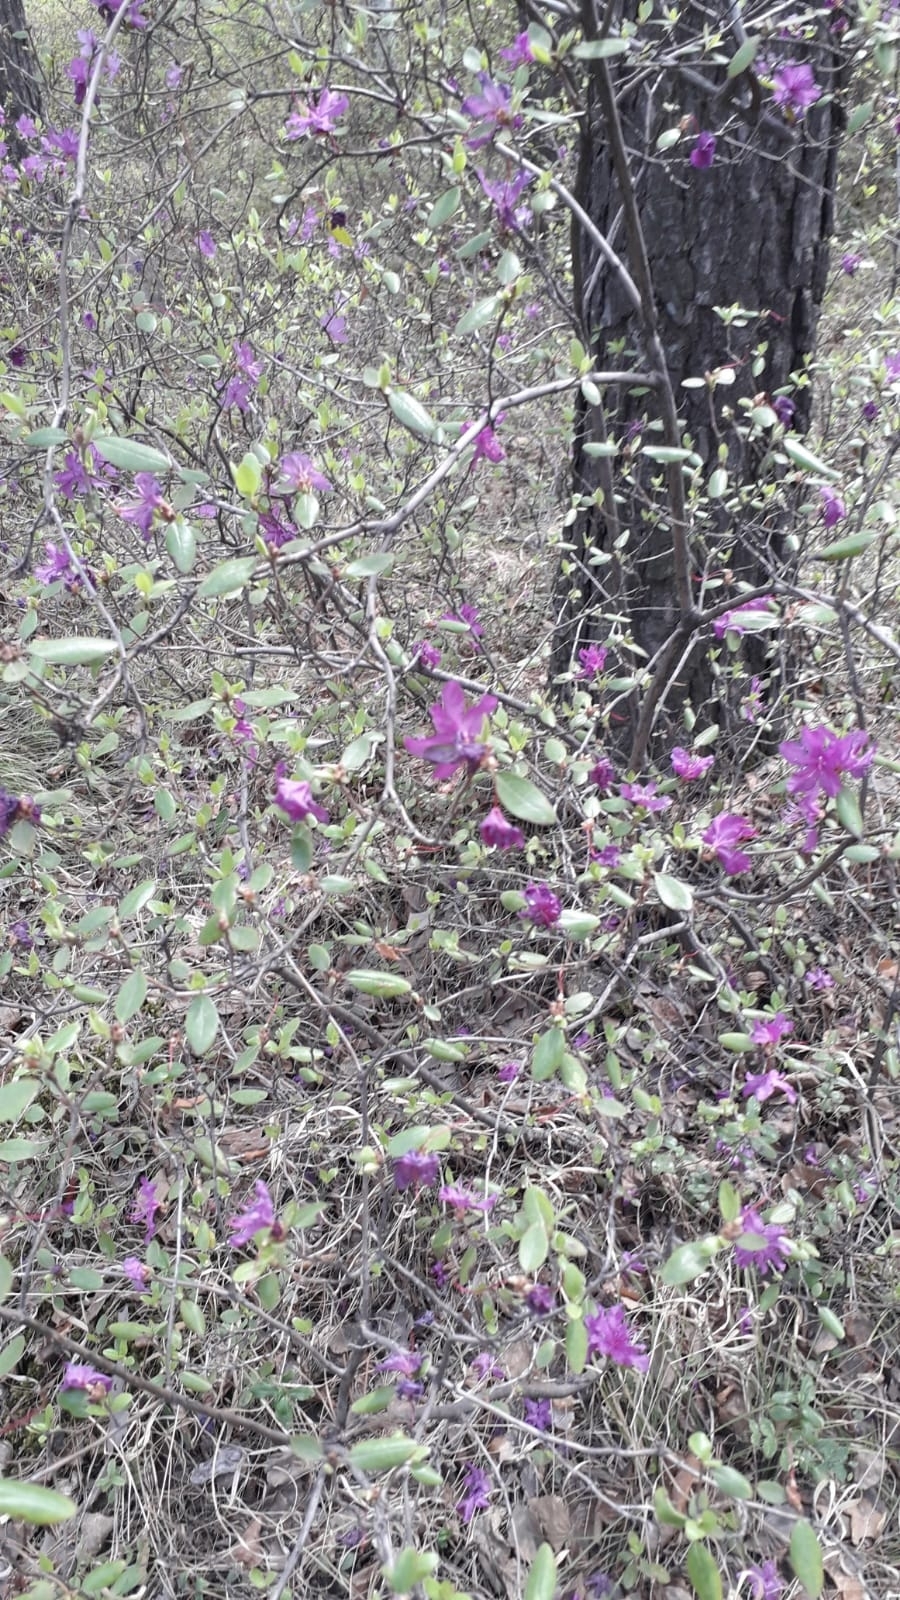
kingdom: Plantae
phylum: Tracheophyta
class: Magnoliopsida
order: Ericales
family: Ericaceae
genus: Rhododendron
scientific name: Rhododendron dauricum
